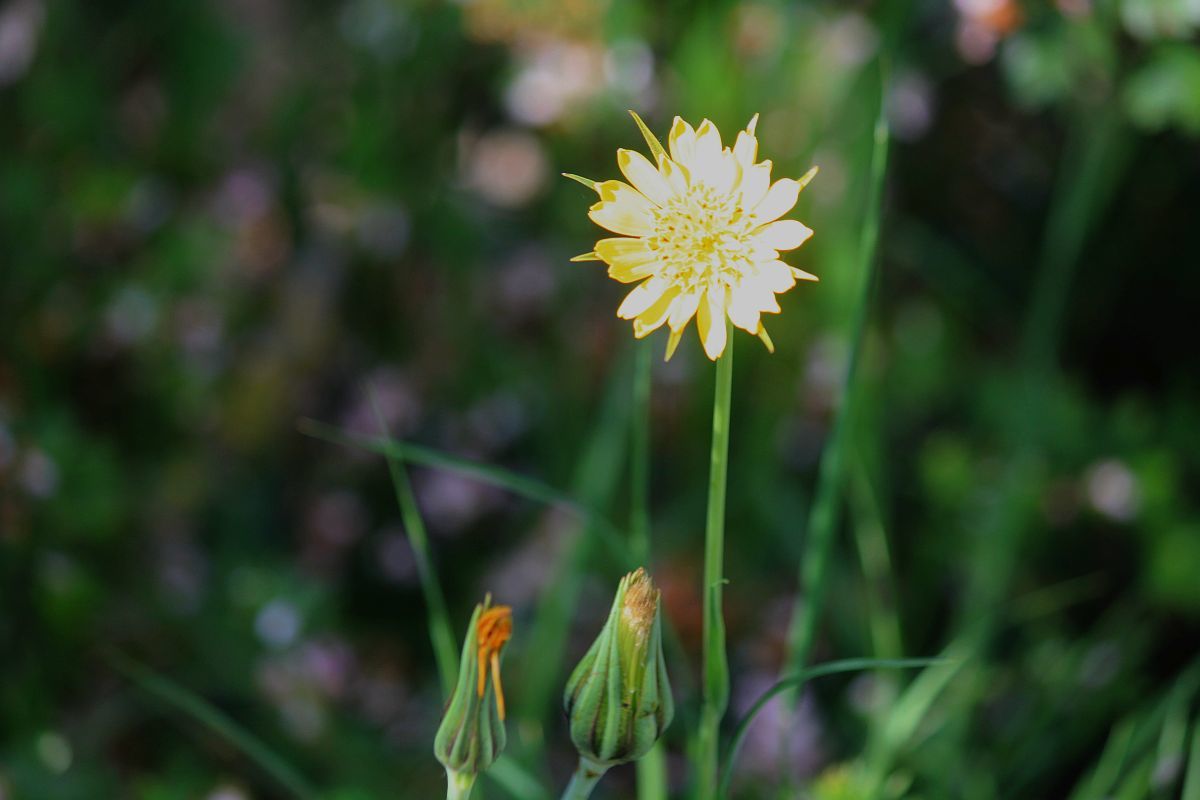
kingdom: Plantae
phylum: Tracheophyta
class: Magnoliopsida
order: Asterales
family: Asteraceae
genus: Tragopogon
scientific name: Tragopogon pratensis
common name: Goat's-beard
